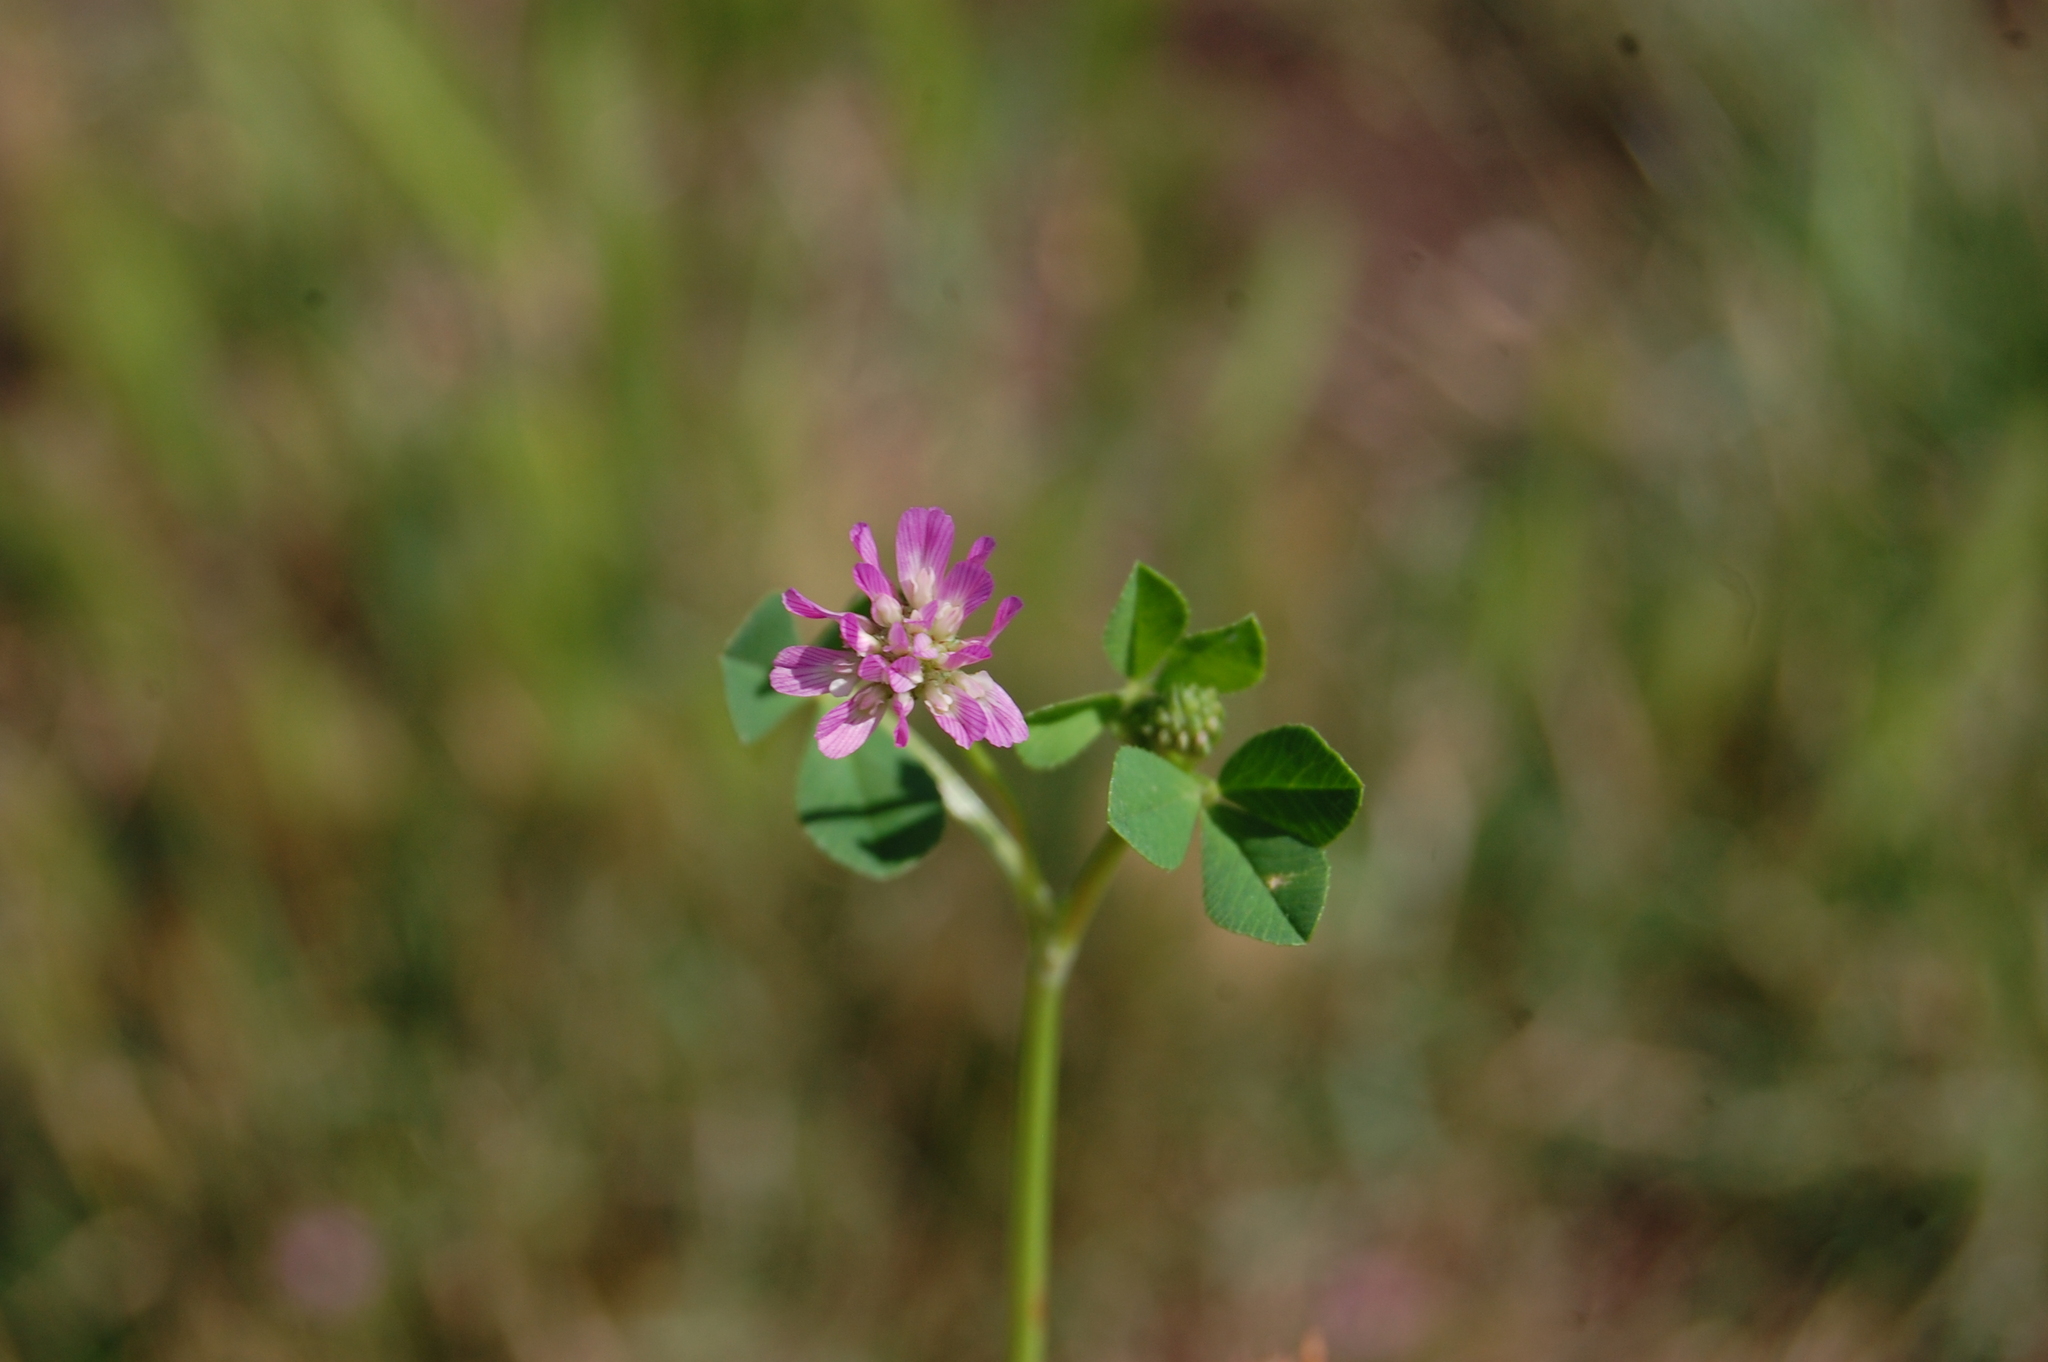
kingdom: Plantae
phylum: Tracheophyta
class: Magnoliopsida
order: Fabales
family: Fabaceae
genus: Trifolium
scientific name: Trifolium resupinatum
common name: Reversed clover
